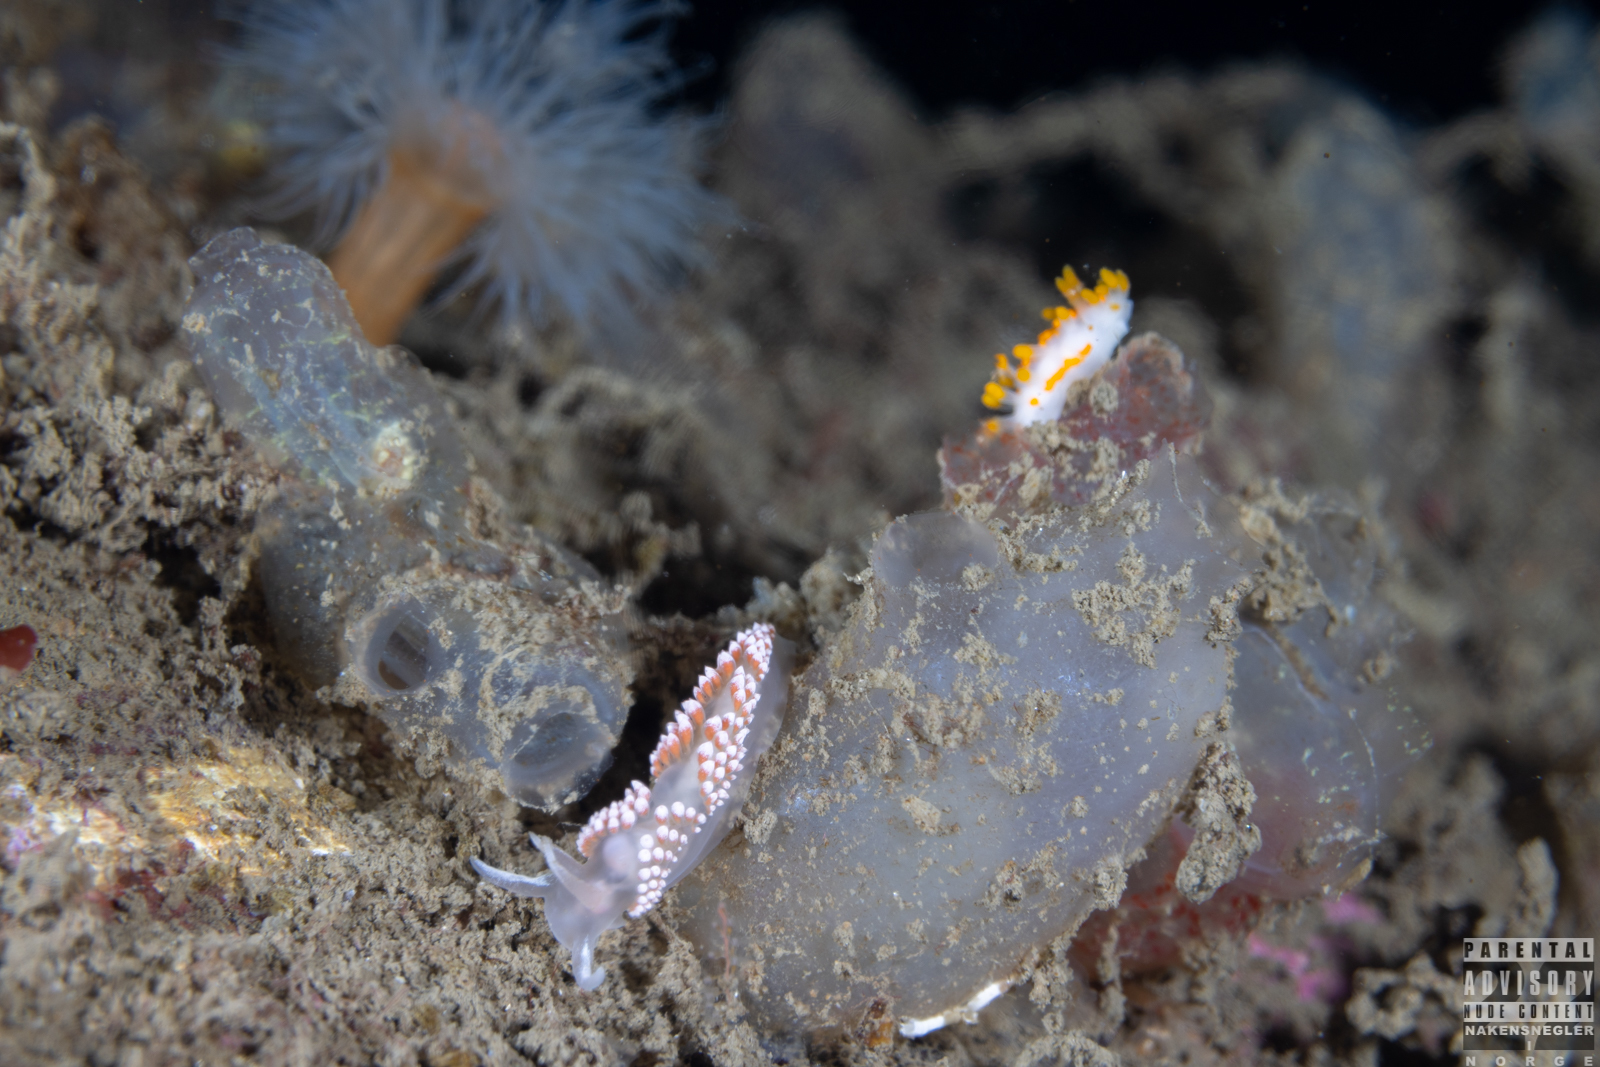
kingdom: Animalia
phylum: Mollusca
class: Gastropoda
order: Nudibranchia
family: Coryphellidae
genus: Coryphella
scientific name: Coryphella verrucosa
